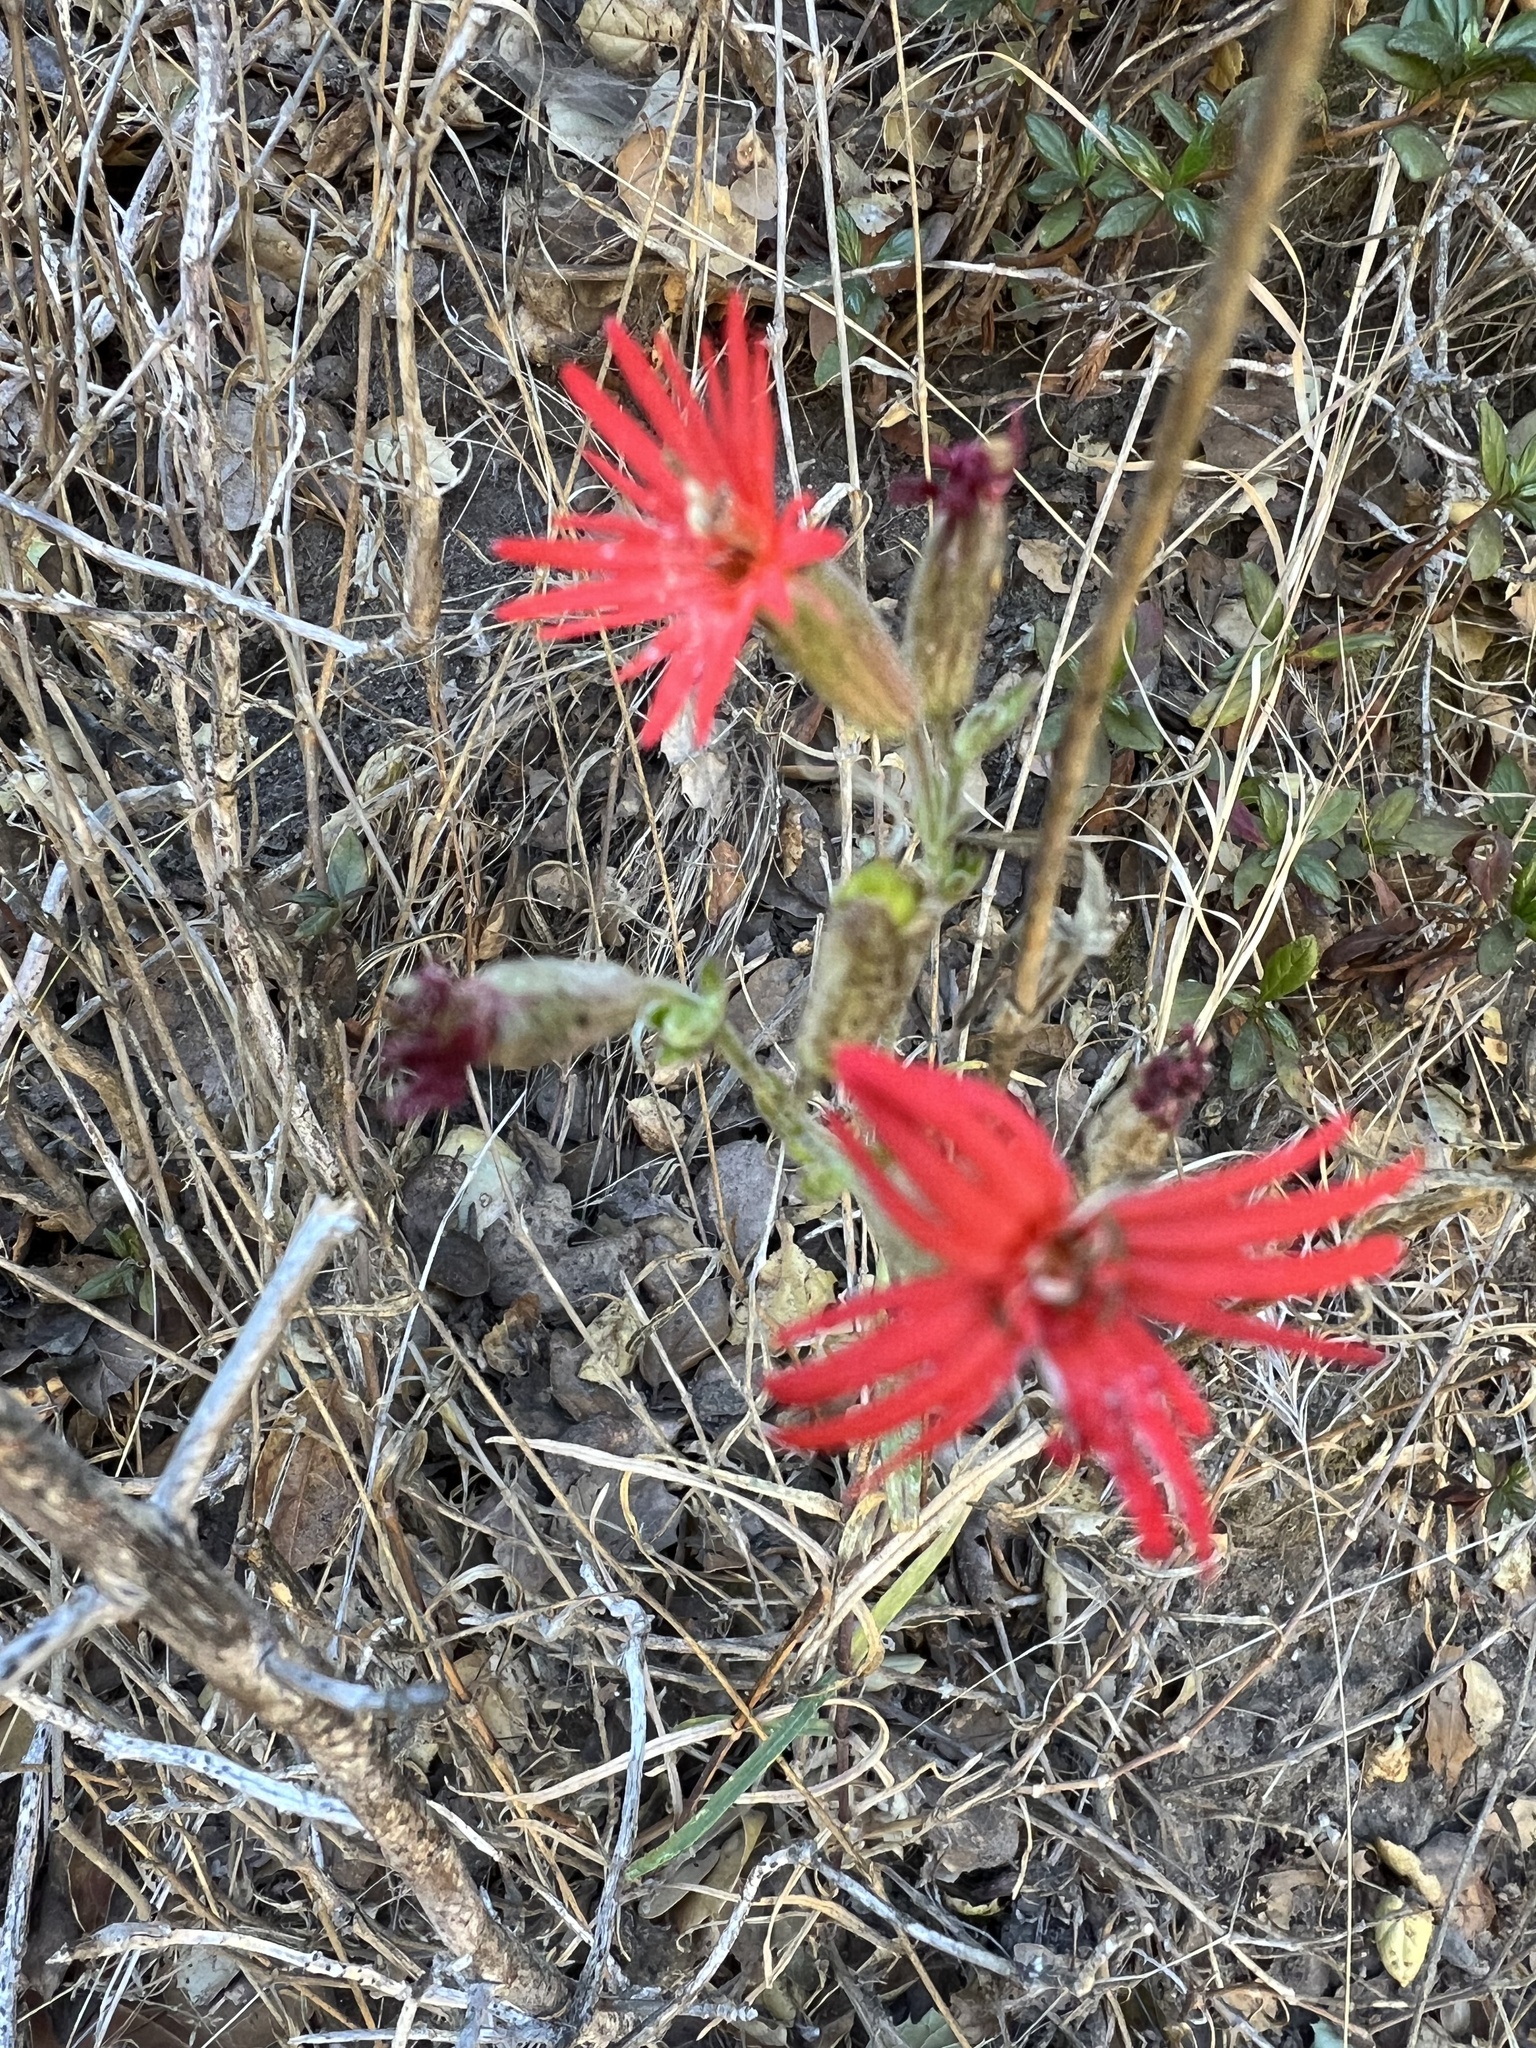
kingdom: Plantae
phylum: Tracheophyta
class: Magnoliopsida
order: Caryophyllales
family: Caryophyllaceae
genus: Silene
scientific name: Silene laciniata
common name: Indian-pink
